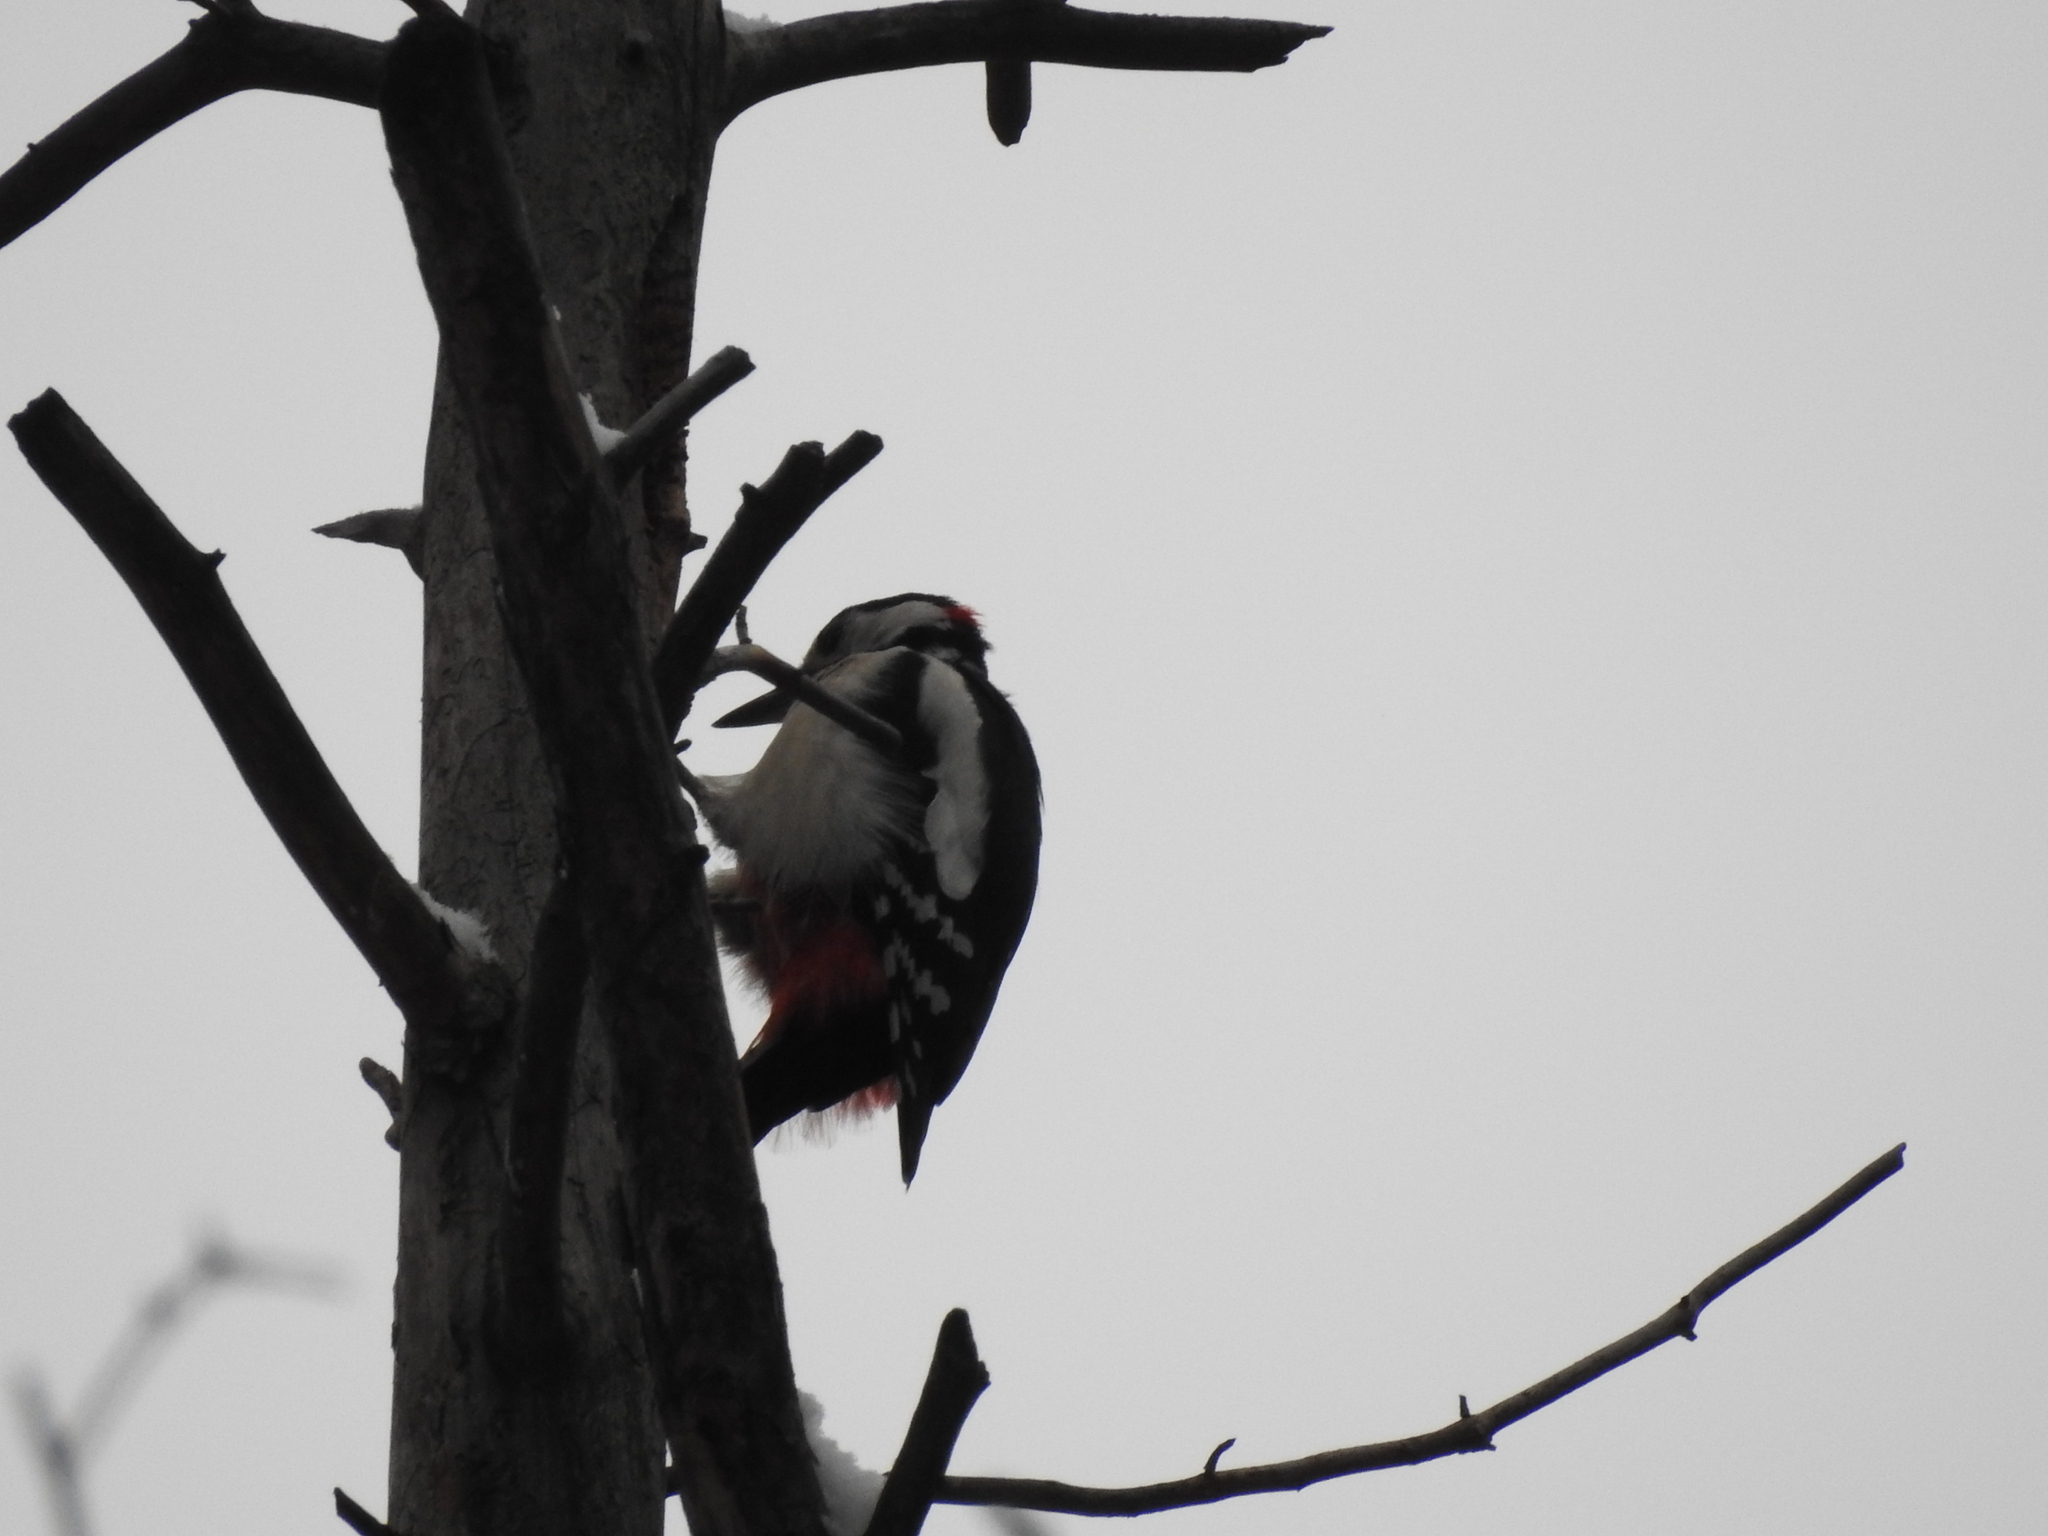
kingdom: Animalia
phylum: Chordata
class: Aves
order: Piciformes
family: Picidae
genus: Dendrocopos
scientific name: Dendrocopos major
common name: Great spotted woodpecker
